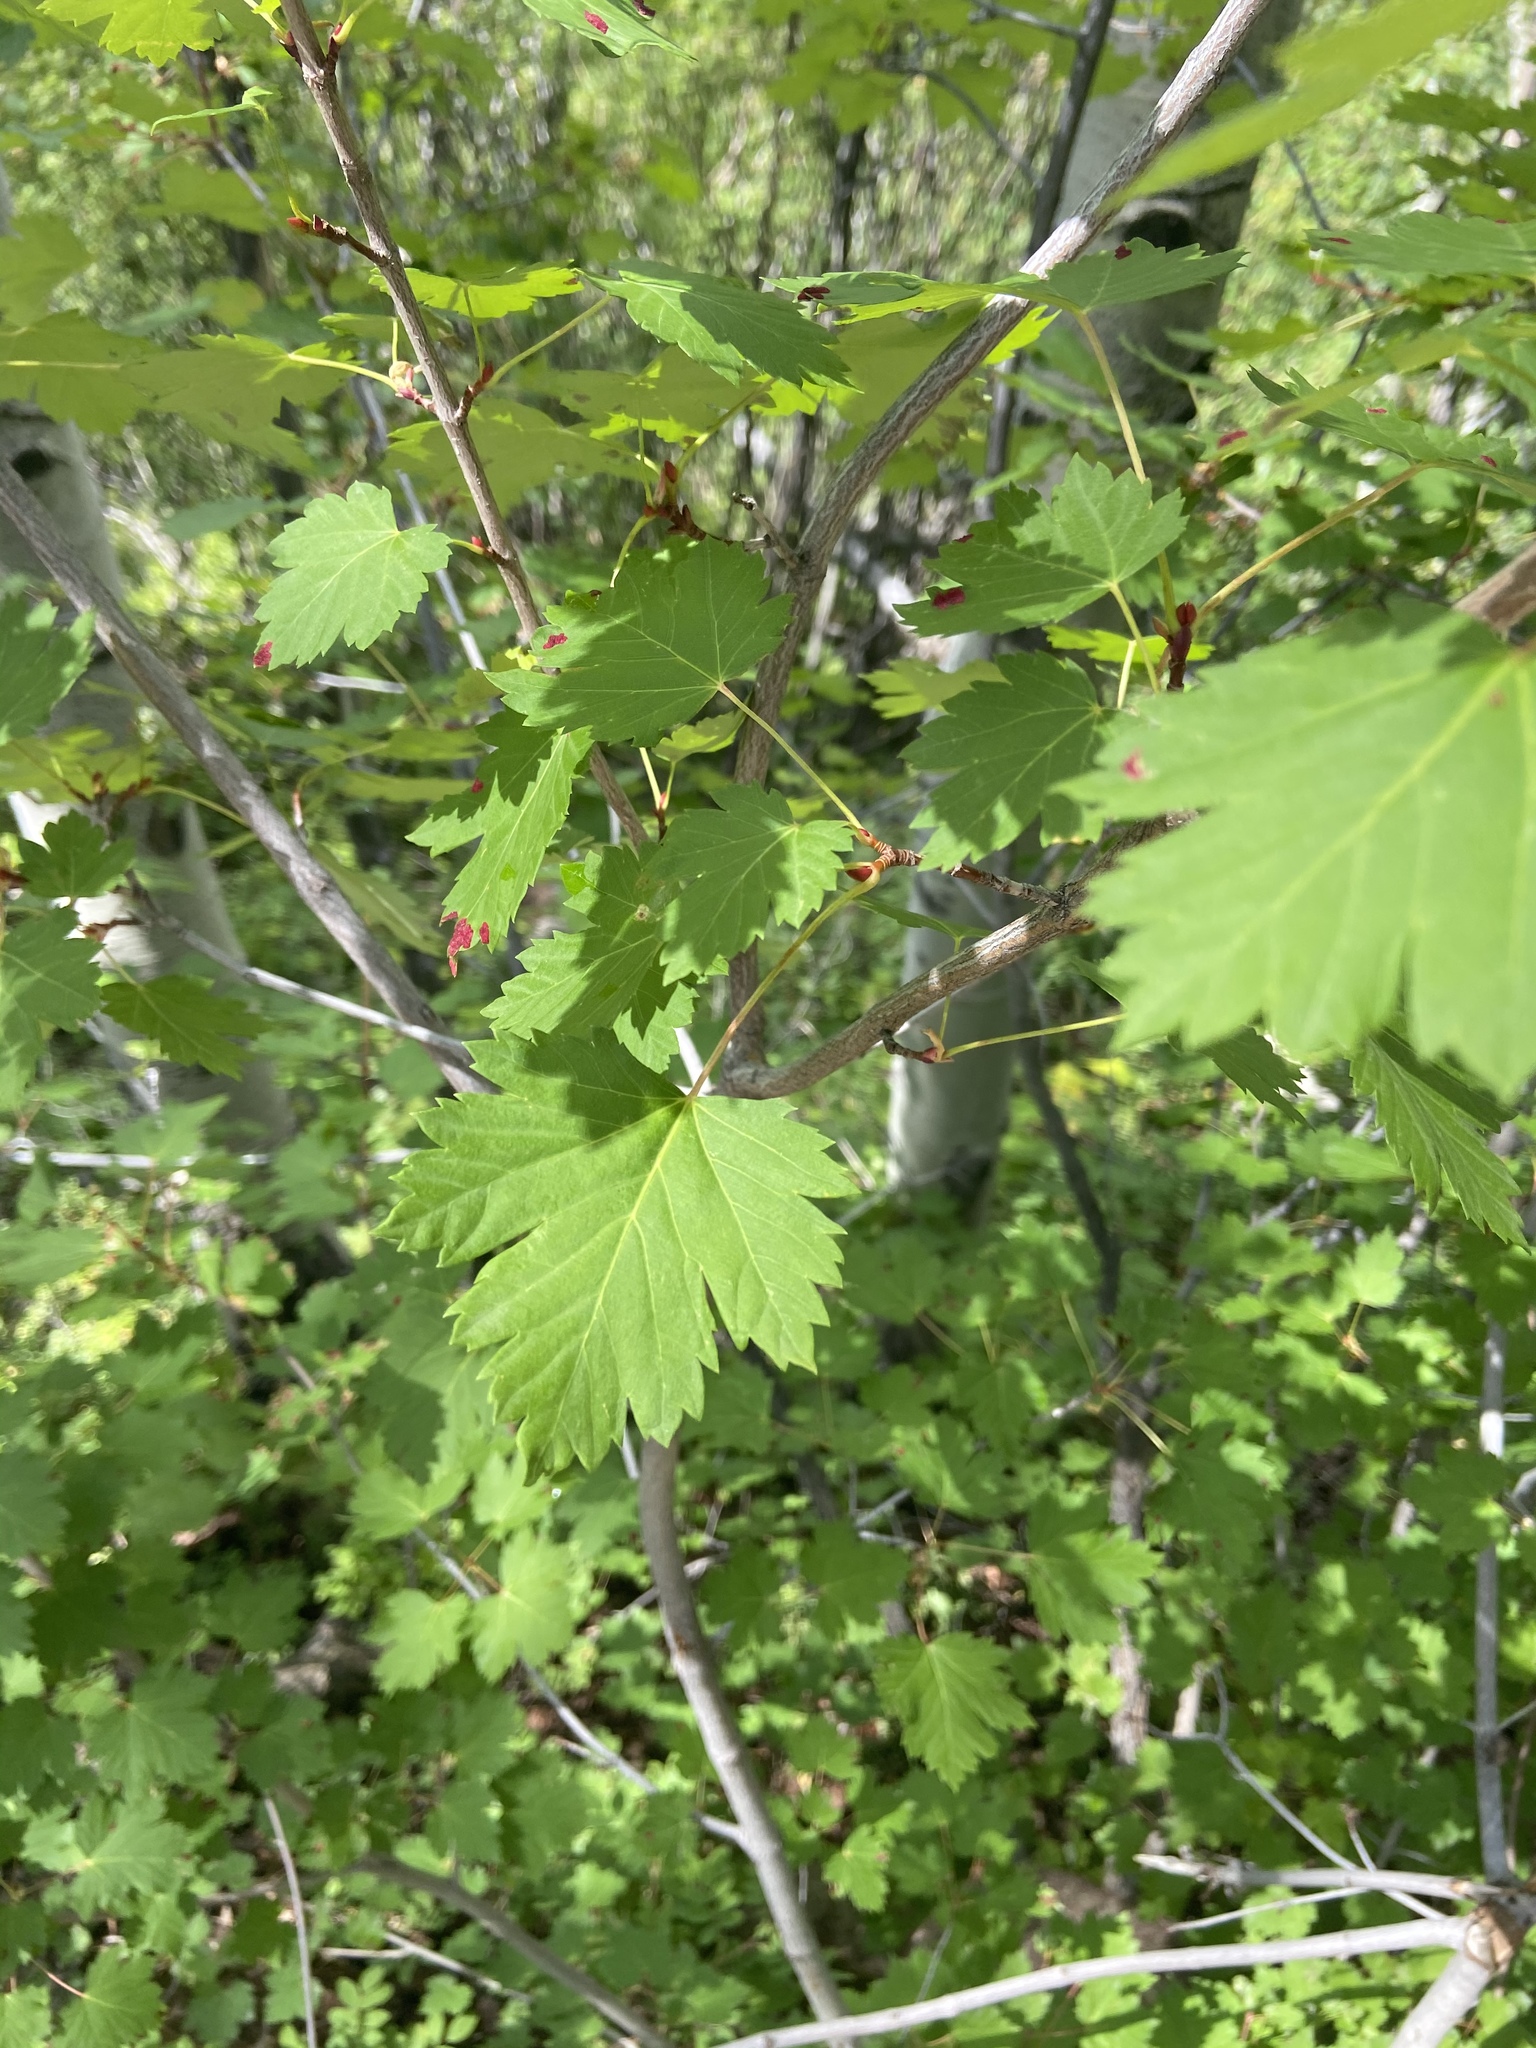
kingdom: Plantae
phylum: Tracheophyta
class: Magnoliopsida
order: Sapindales
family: Sapindaceae
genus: Acer
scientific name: Acer glabrum
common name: Rocky mountain maple
